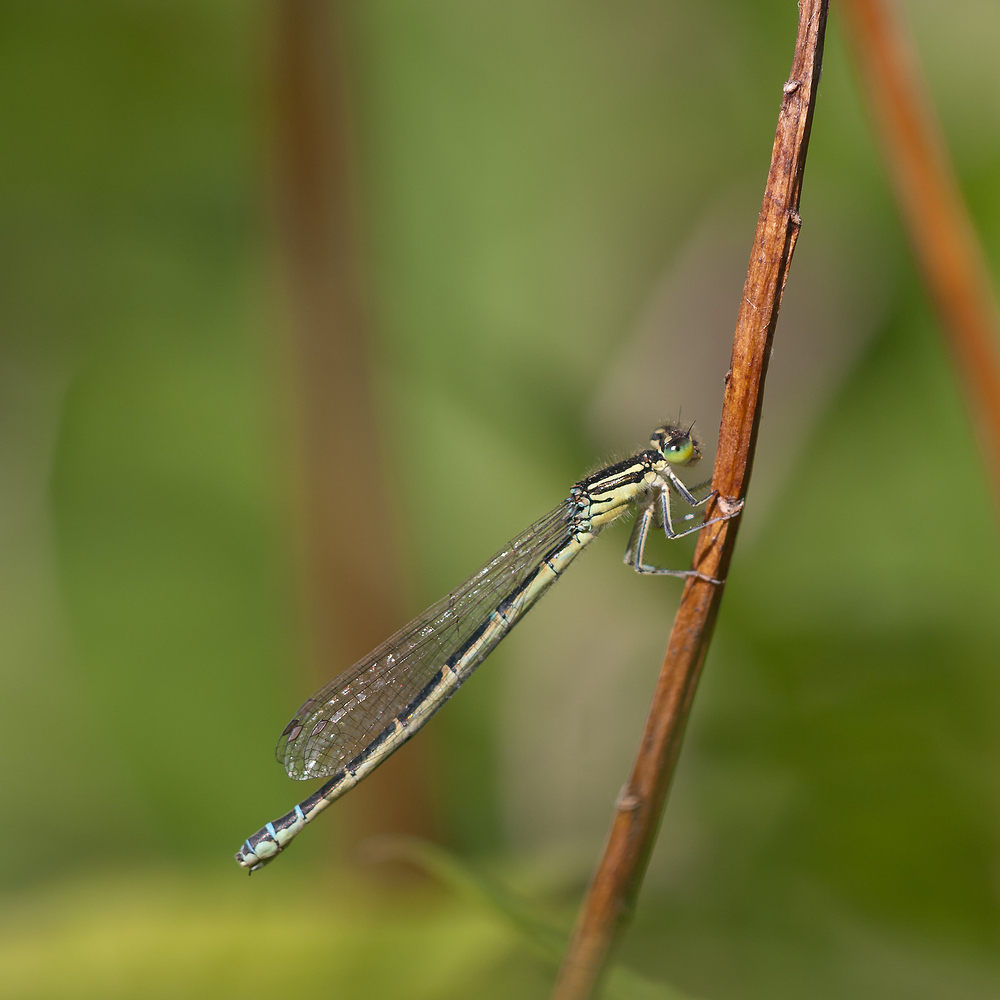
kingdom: Animalia
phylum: Arthropoda
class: Insecta
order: Odonata
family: Coenagrionidae
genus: Coenagrion
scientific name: Coenagrion scitulum
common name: Dainty bluet
